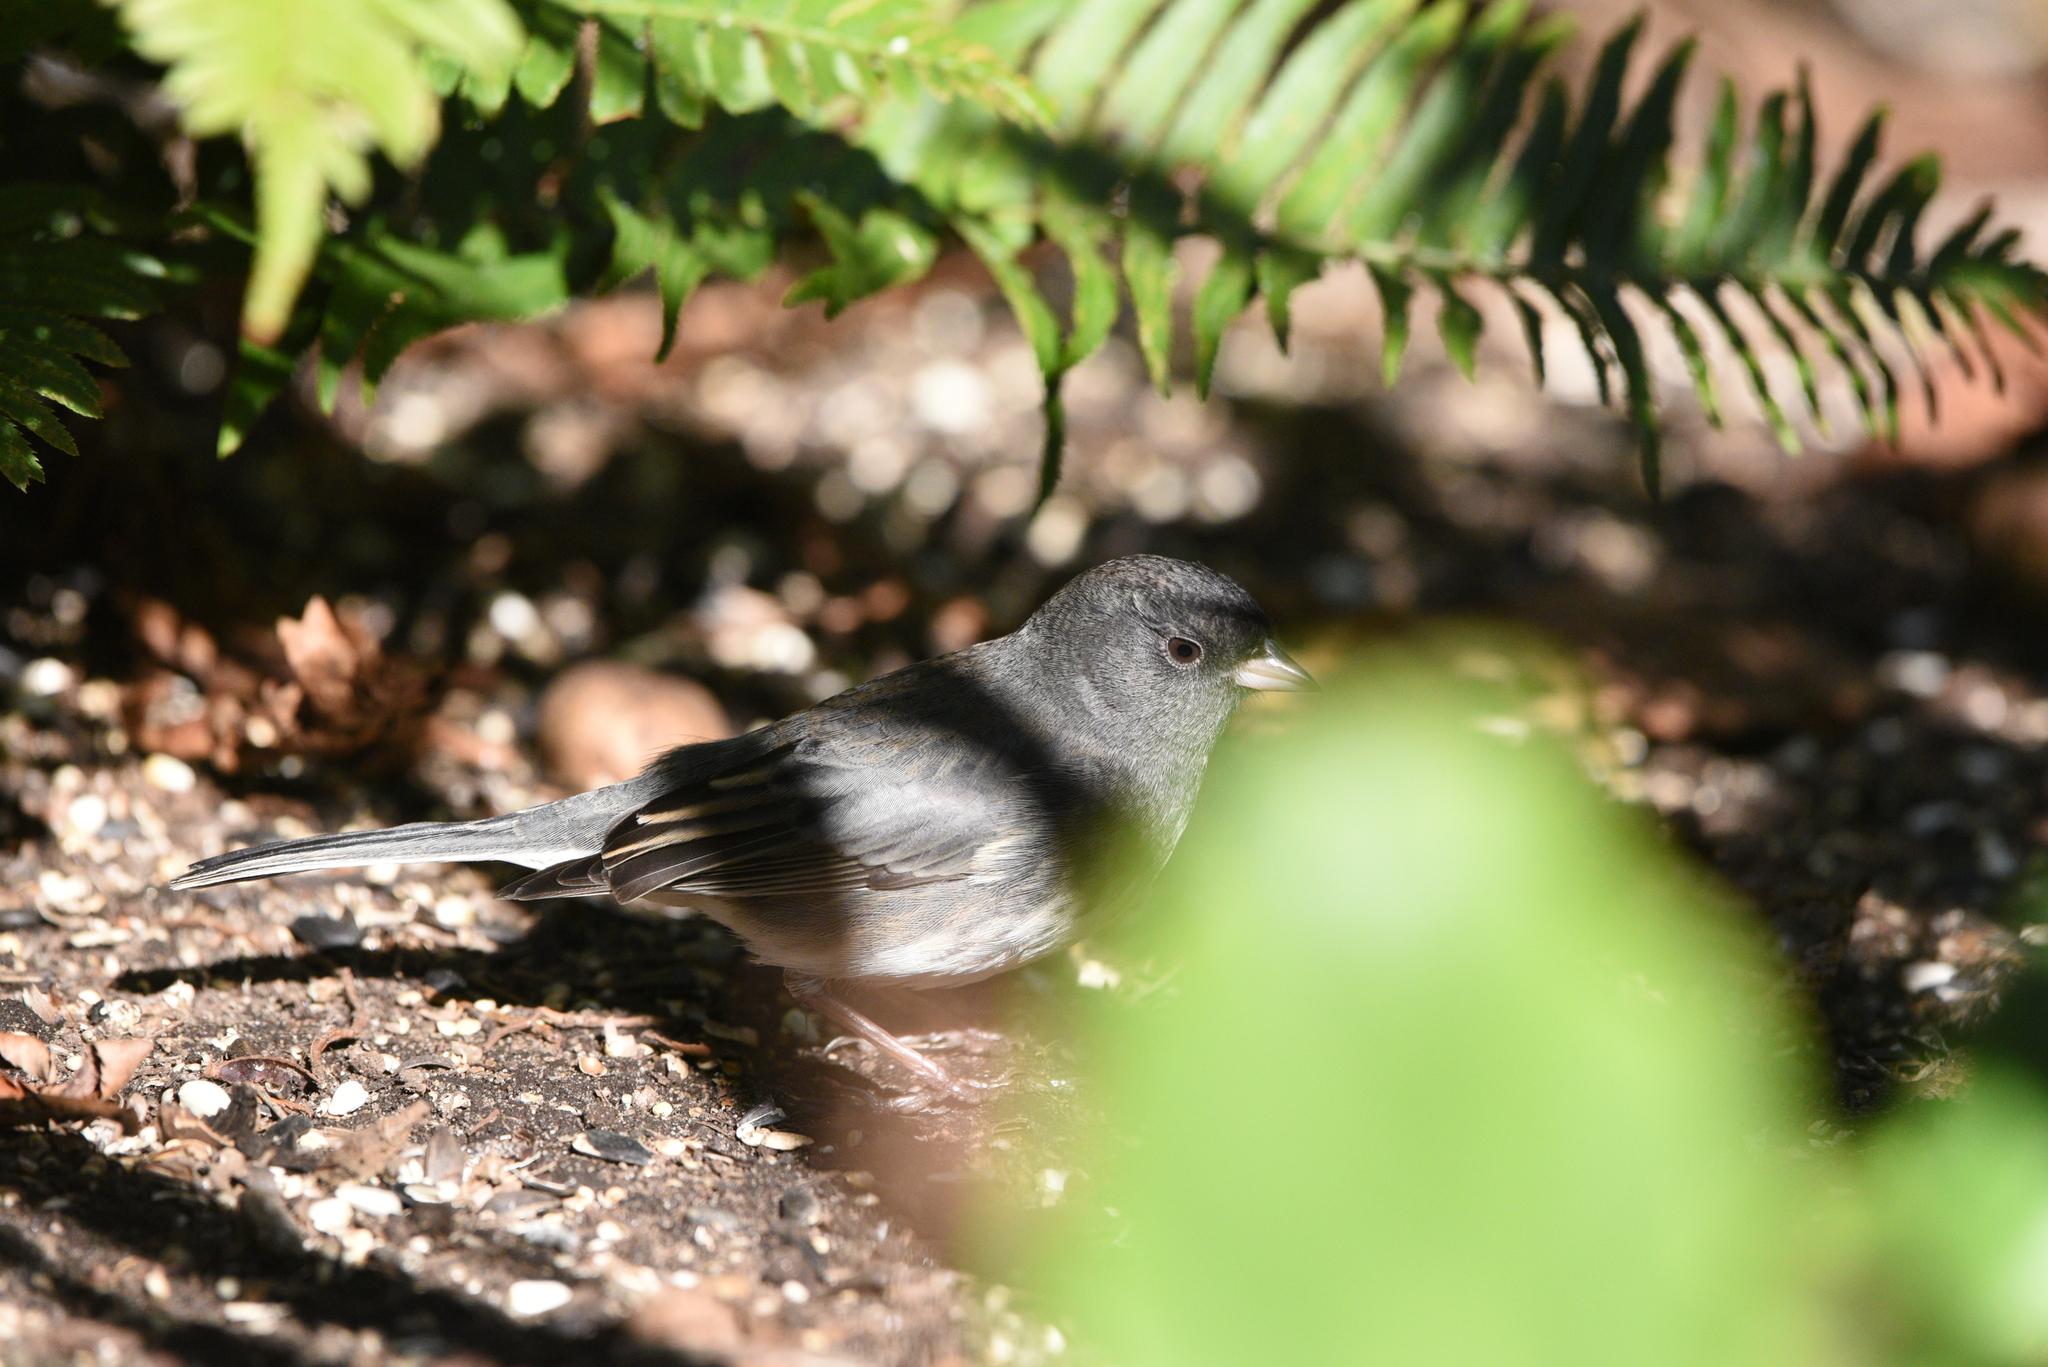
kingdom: Animalia
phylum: Chordata
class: Aves
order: Passeriformes
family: Passerellidae
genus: Junco
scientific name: Junco hyemalis
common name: Dark-eyed junco
